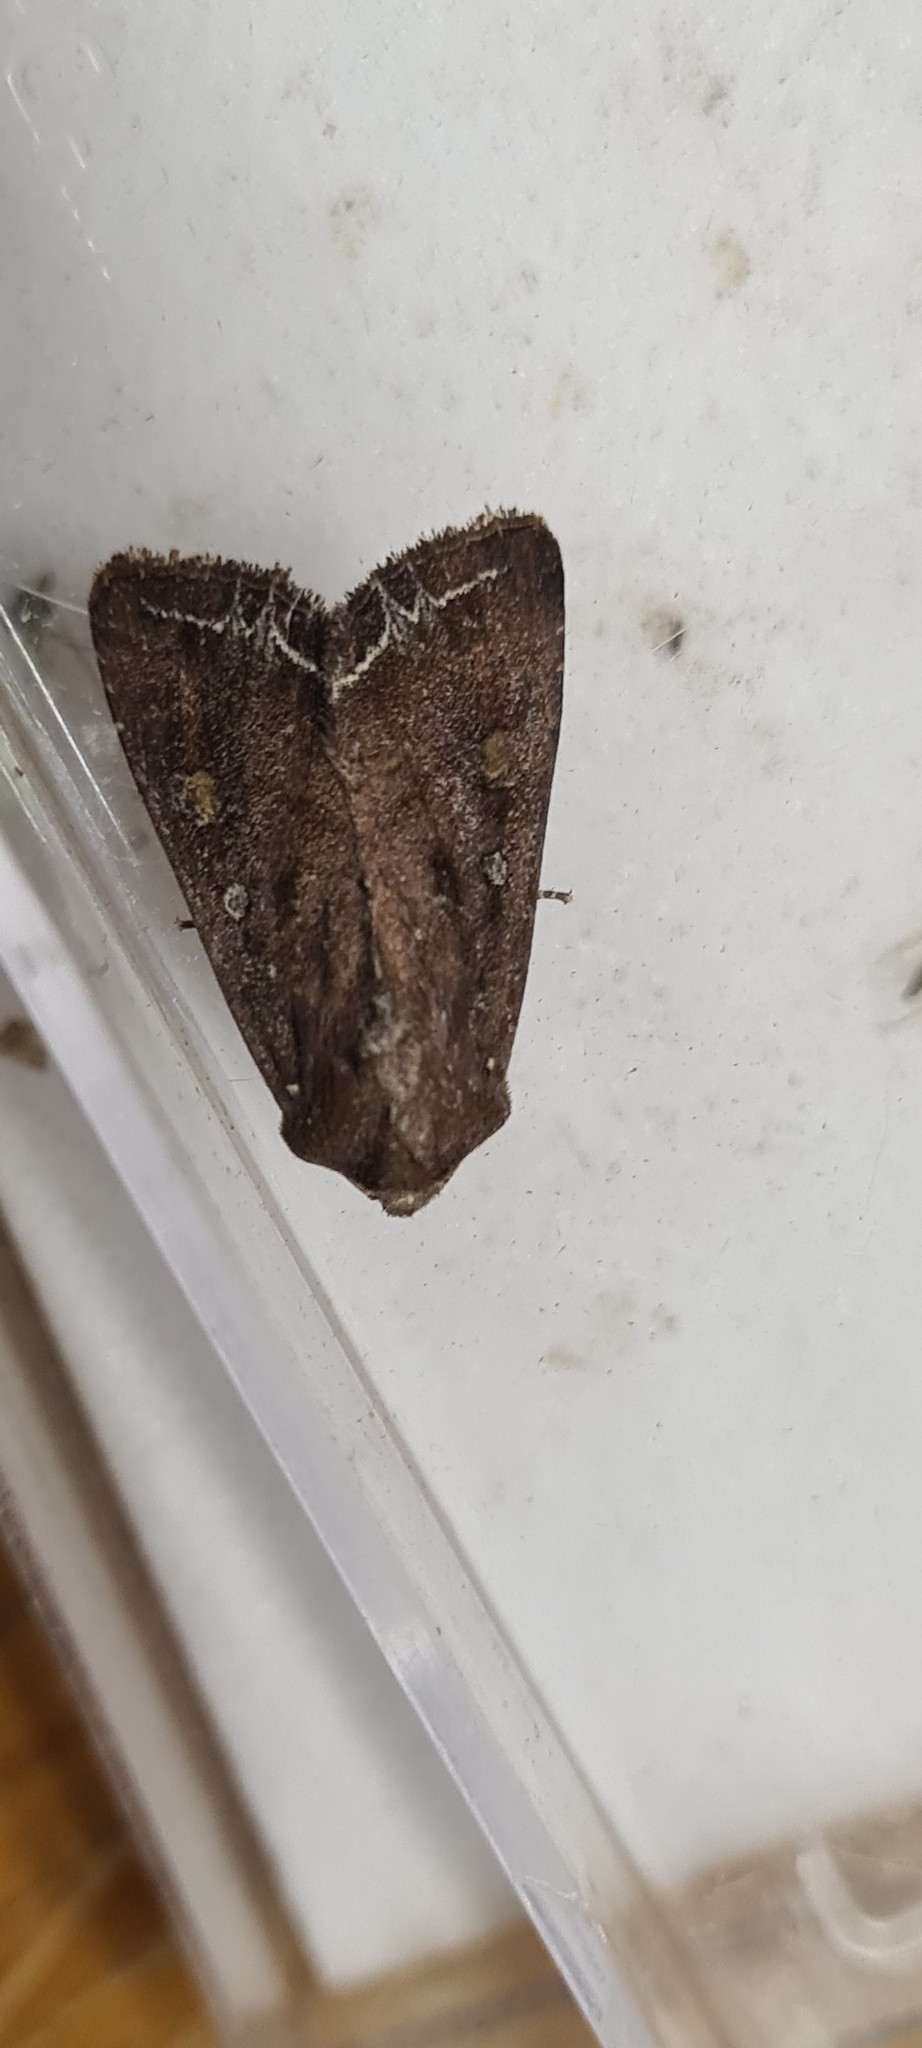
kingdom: Animalia
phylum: Arthropoda
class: Insecta
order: Lepidoptera
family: Noctuidae
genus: Lacanobia
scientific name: Lacanobia oleracea
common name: Bright-line brown-eye
